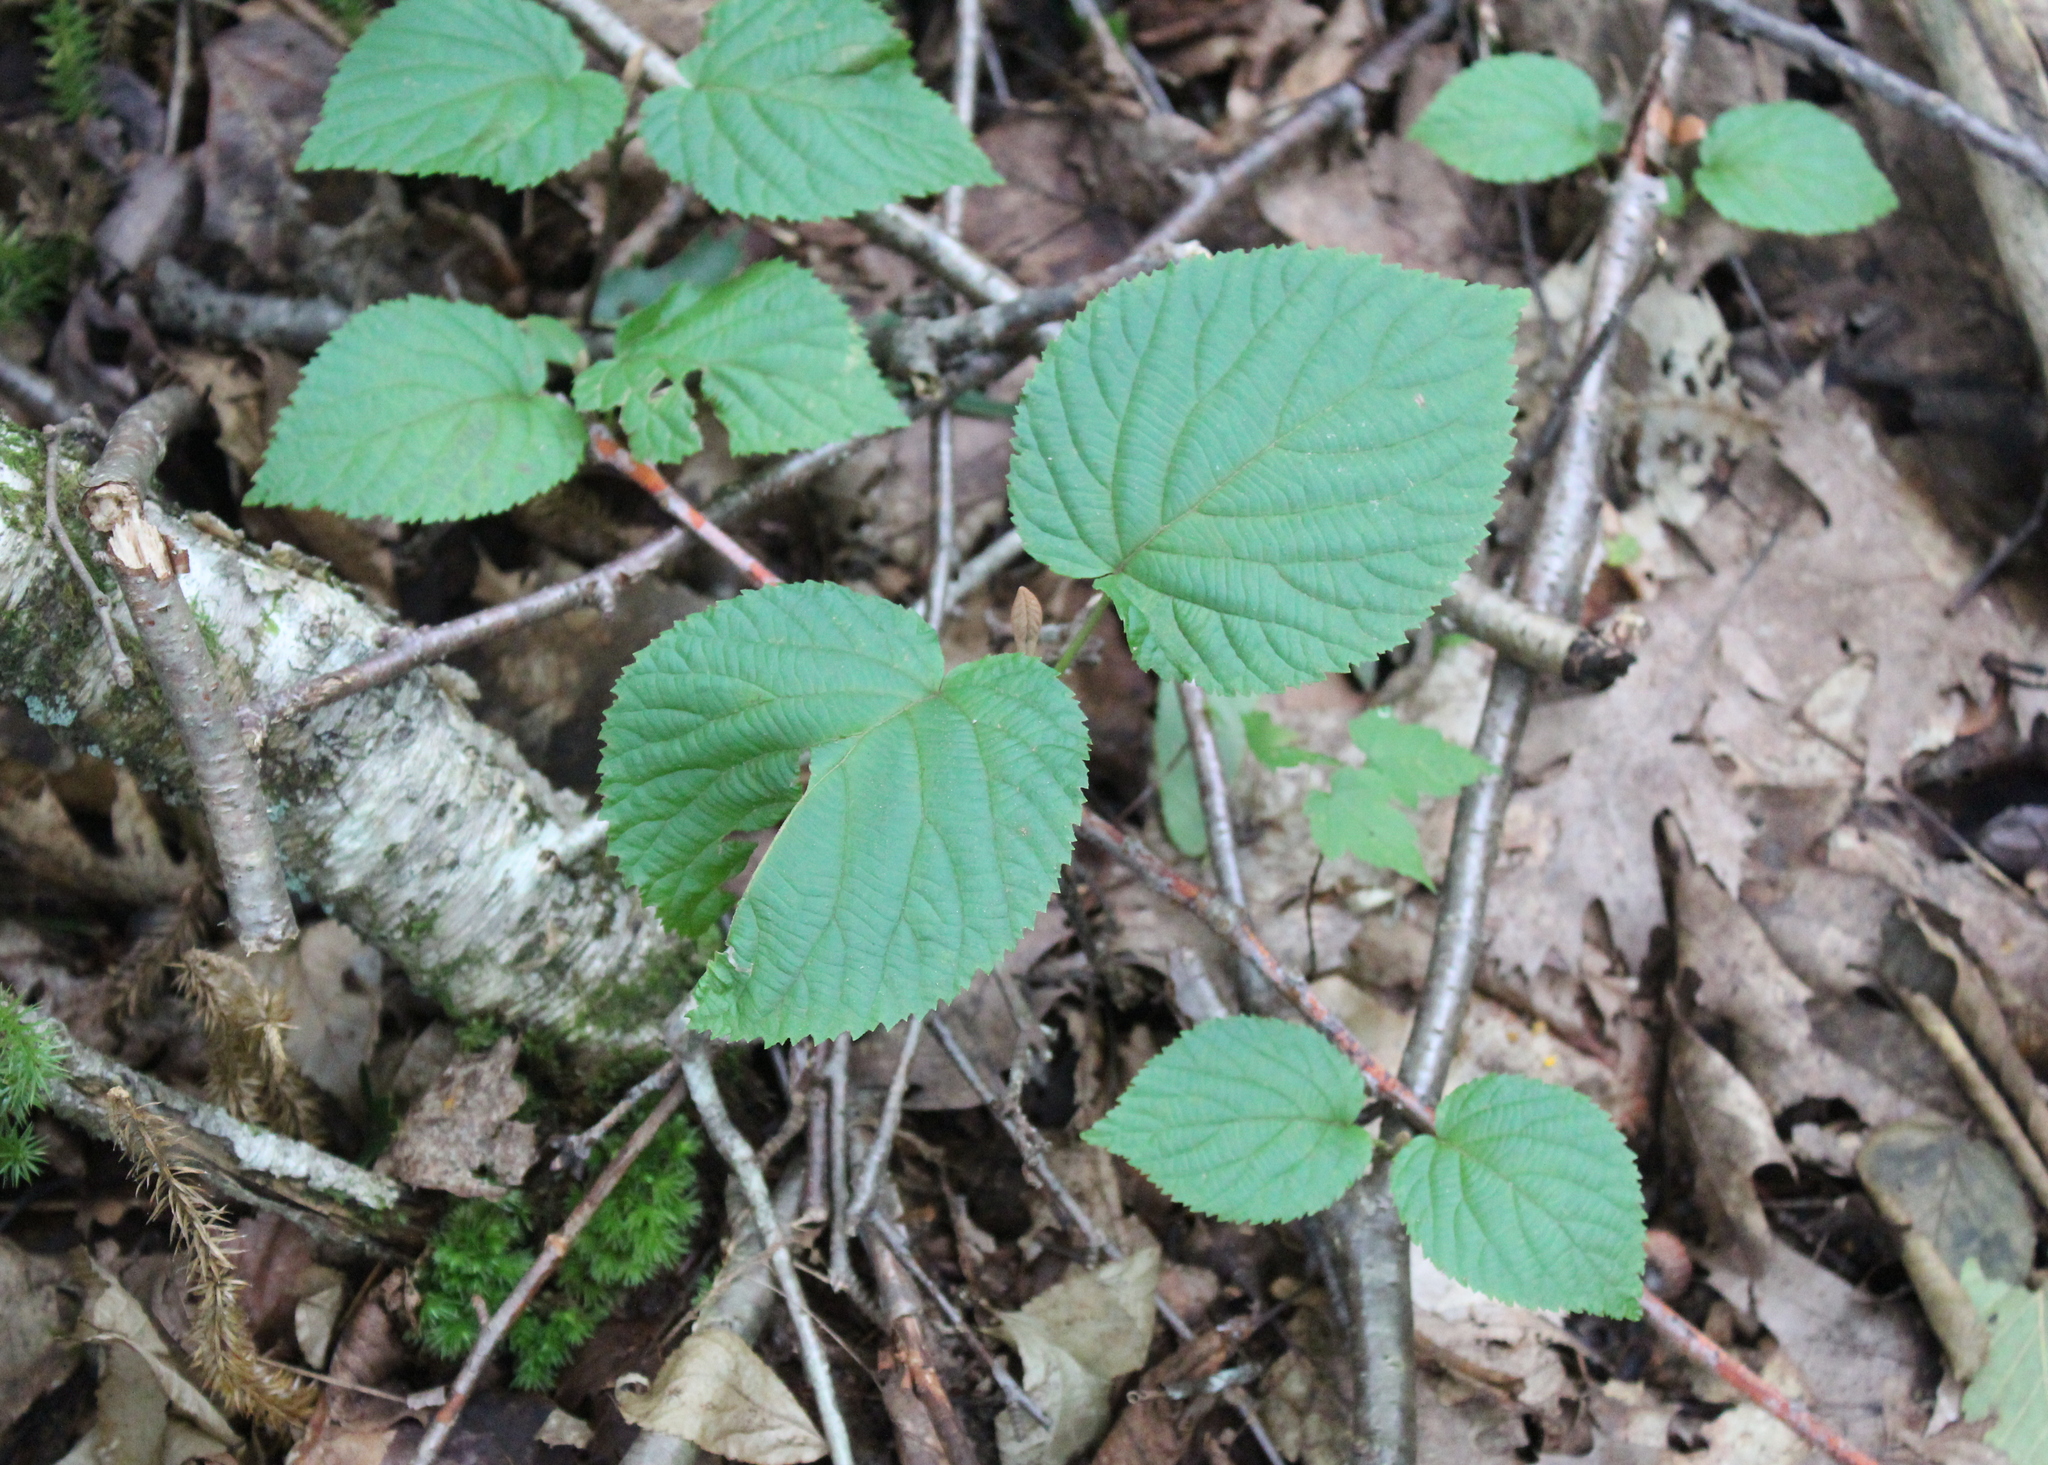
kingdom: Plantae
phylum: Tracheophyta
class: Magnoliopsida
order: Dipsacales
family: Viburnaceae
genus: Viburnum
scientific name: Viburnum lantanoides
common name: Hobblebush
